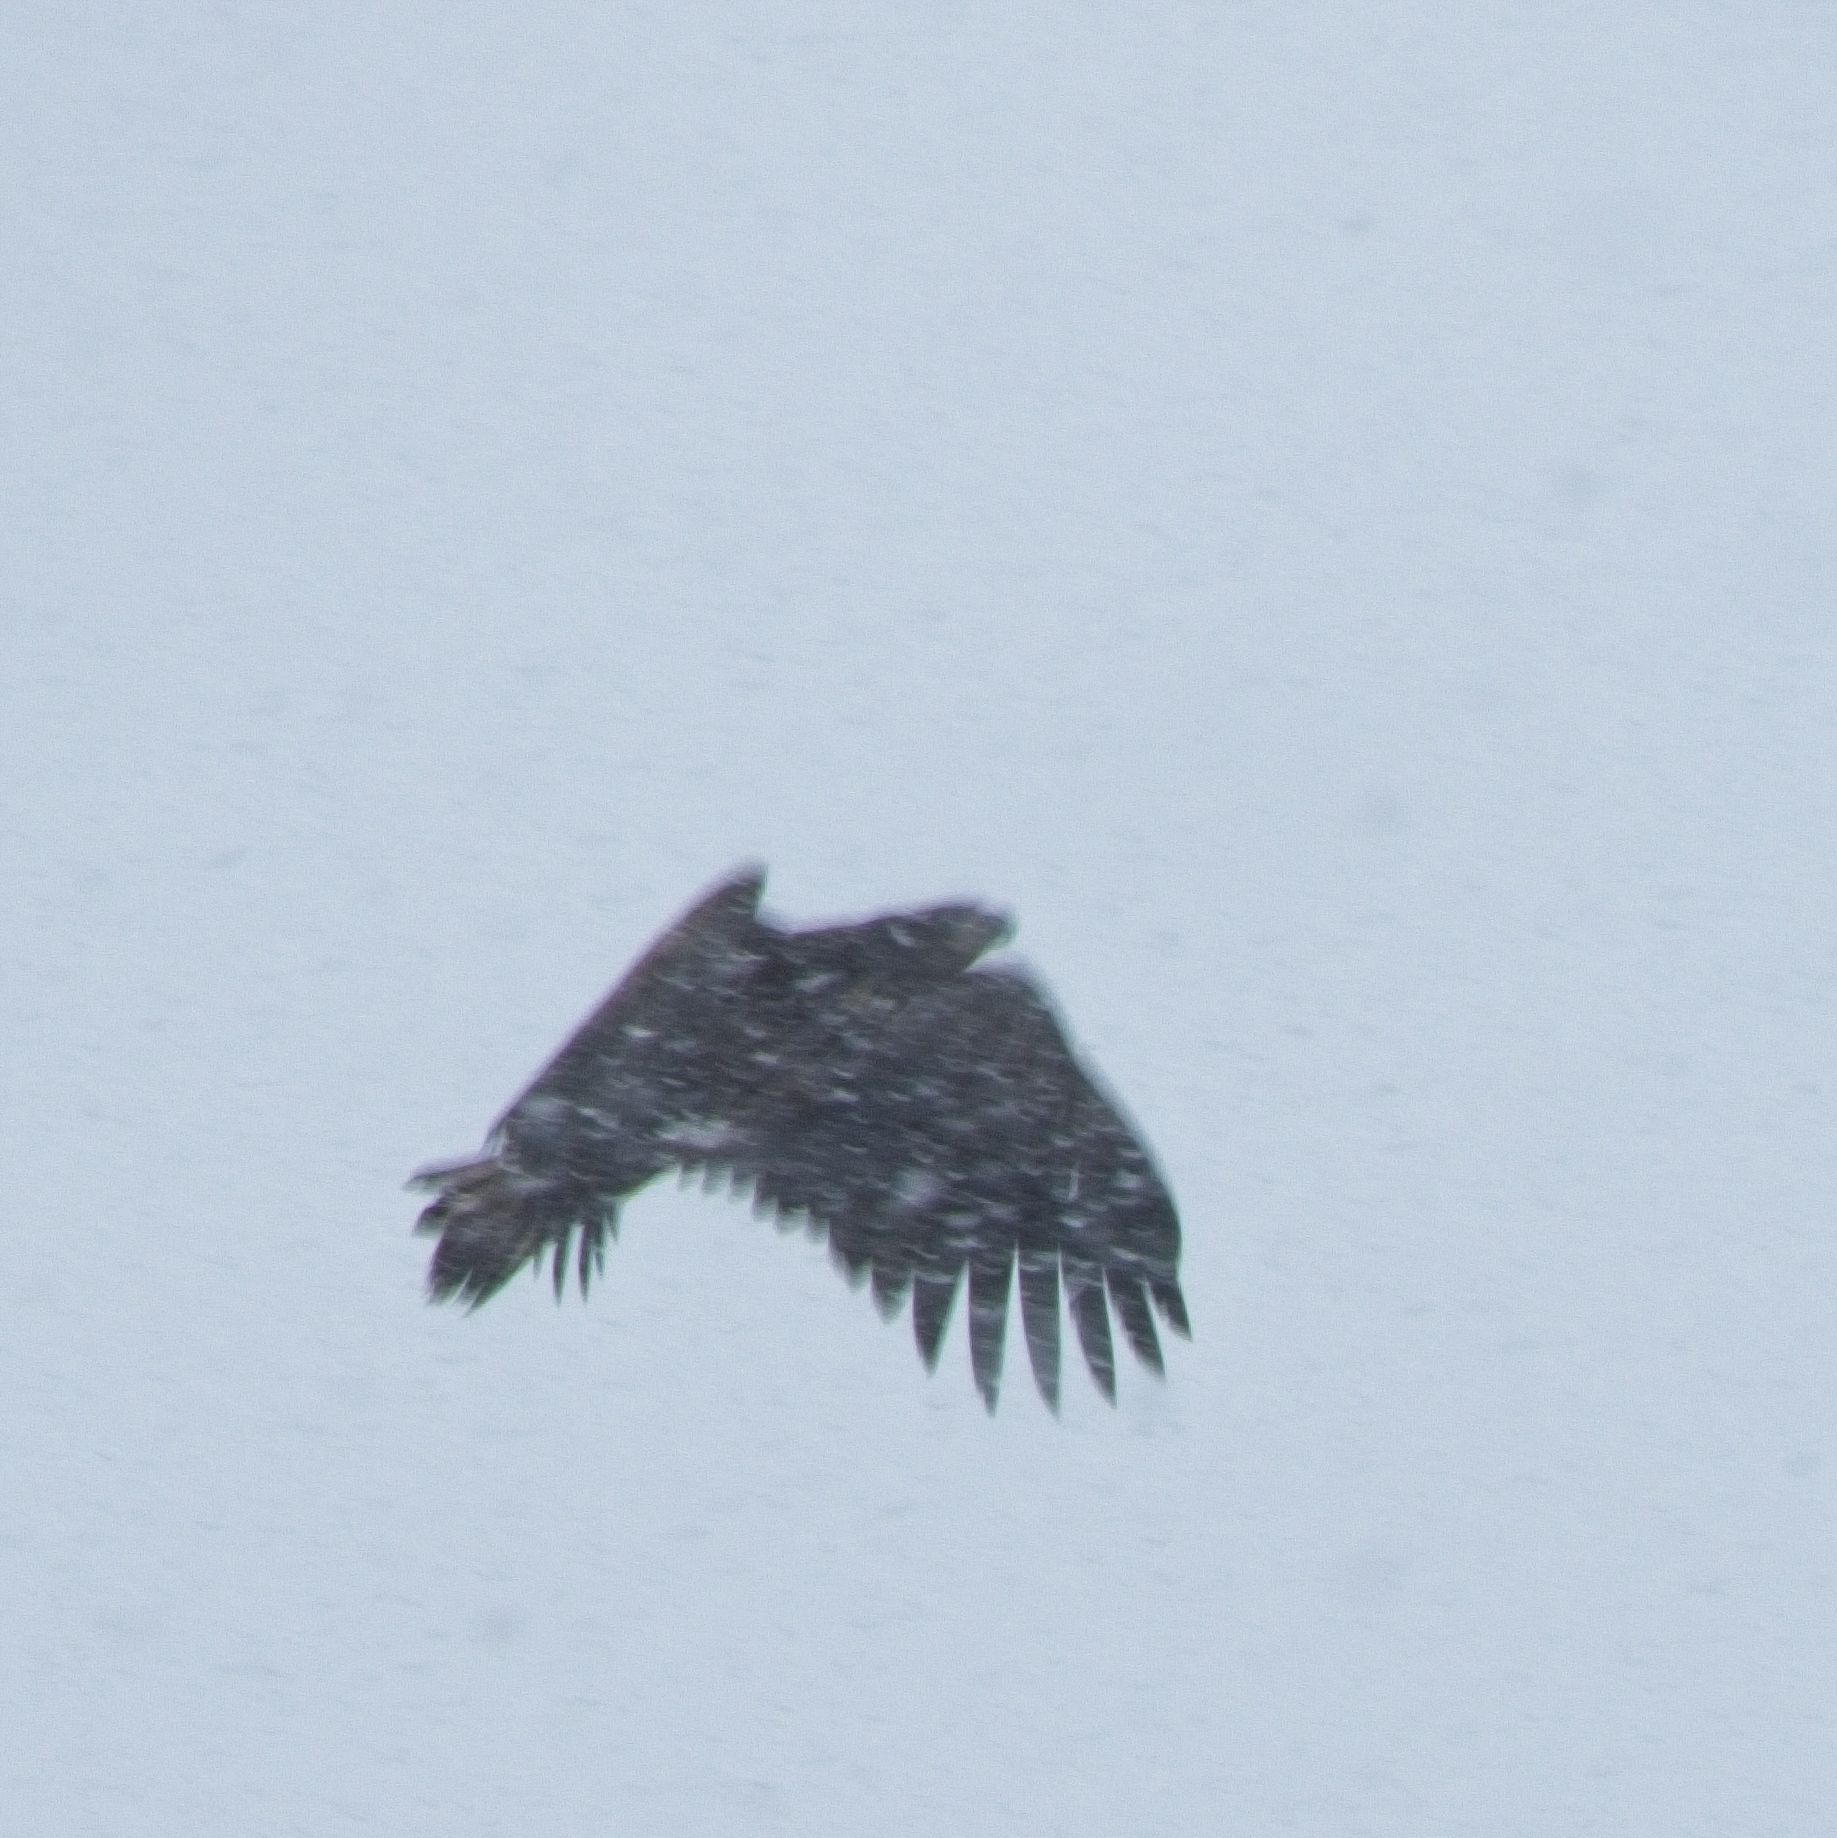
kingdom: Animalia
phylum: Chordata
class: Aves
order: Accipitriformes
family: Accipitridae
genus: Haliaeetus
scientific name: Haliaeetus albicilla
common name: White-tailed eagle
